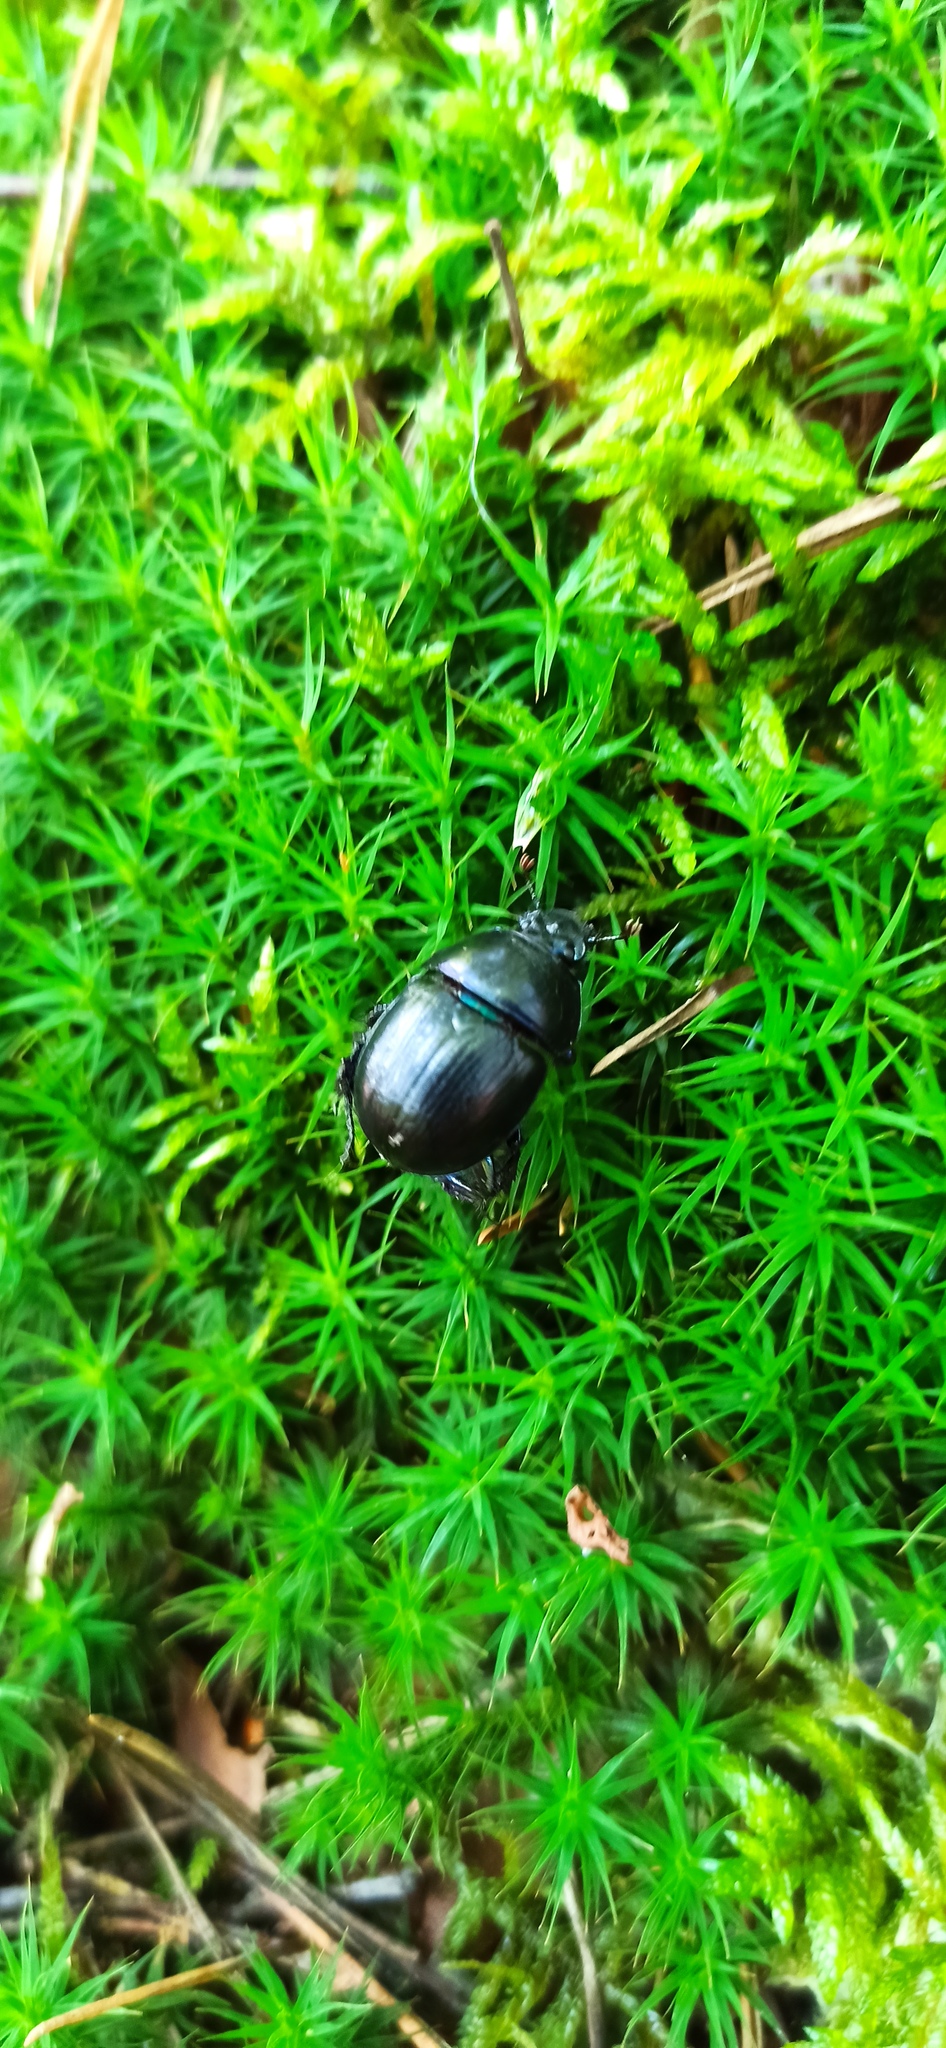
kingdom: Animalia
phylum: Arthropoda
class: Insecta
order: Coleoptera
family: Geotrupidae
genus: Anoplotrupes
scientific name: Anoplotrupes stercorosus
